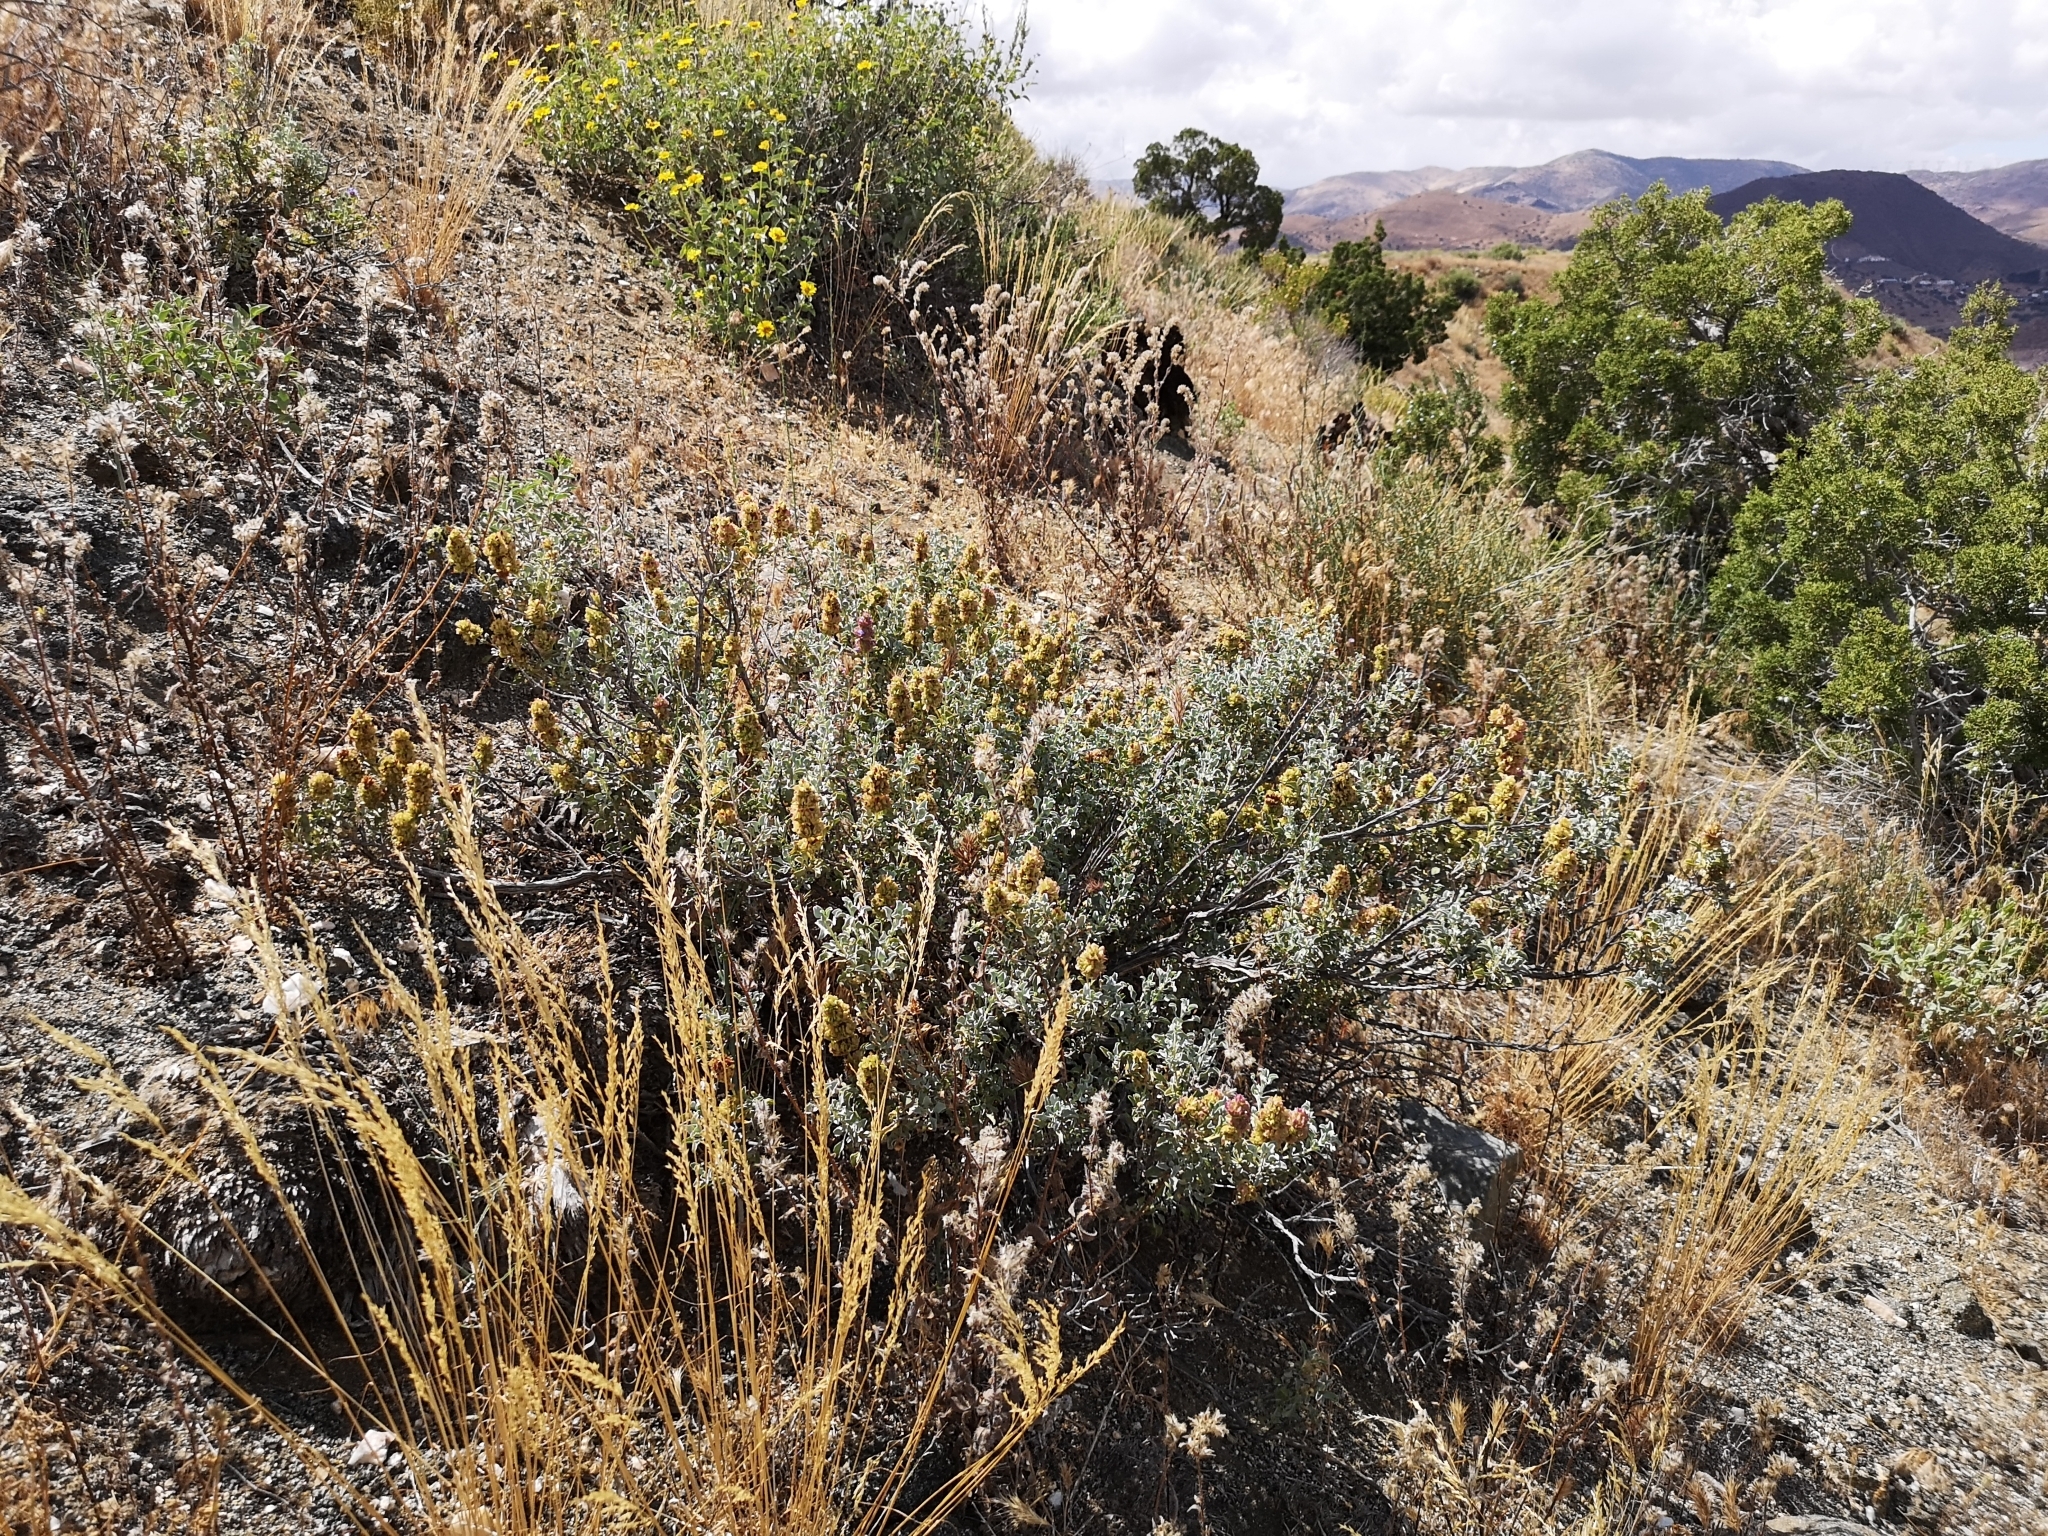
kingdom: Plantae
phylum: Tracheophyta
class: Magnoliopsida
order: Lamiales
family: Lamiaceae
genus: Salvia
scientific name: Salvia dorrii
